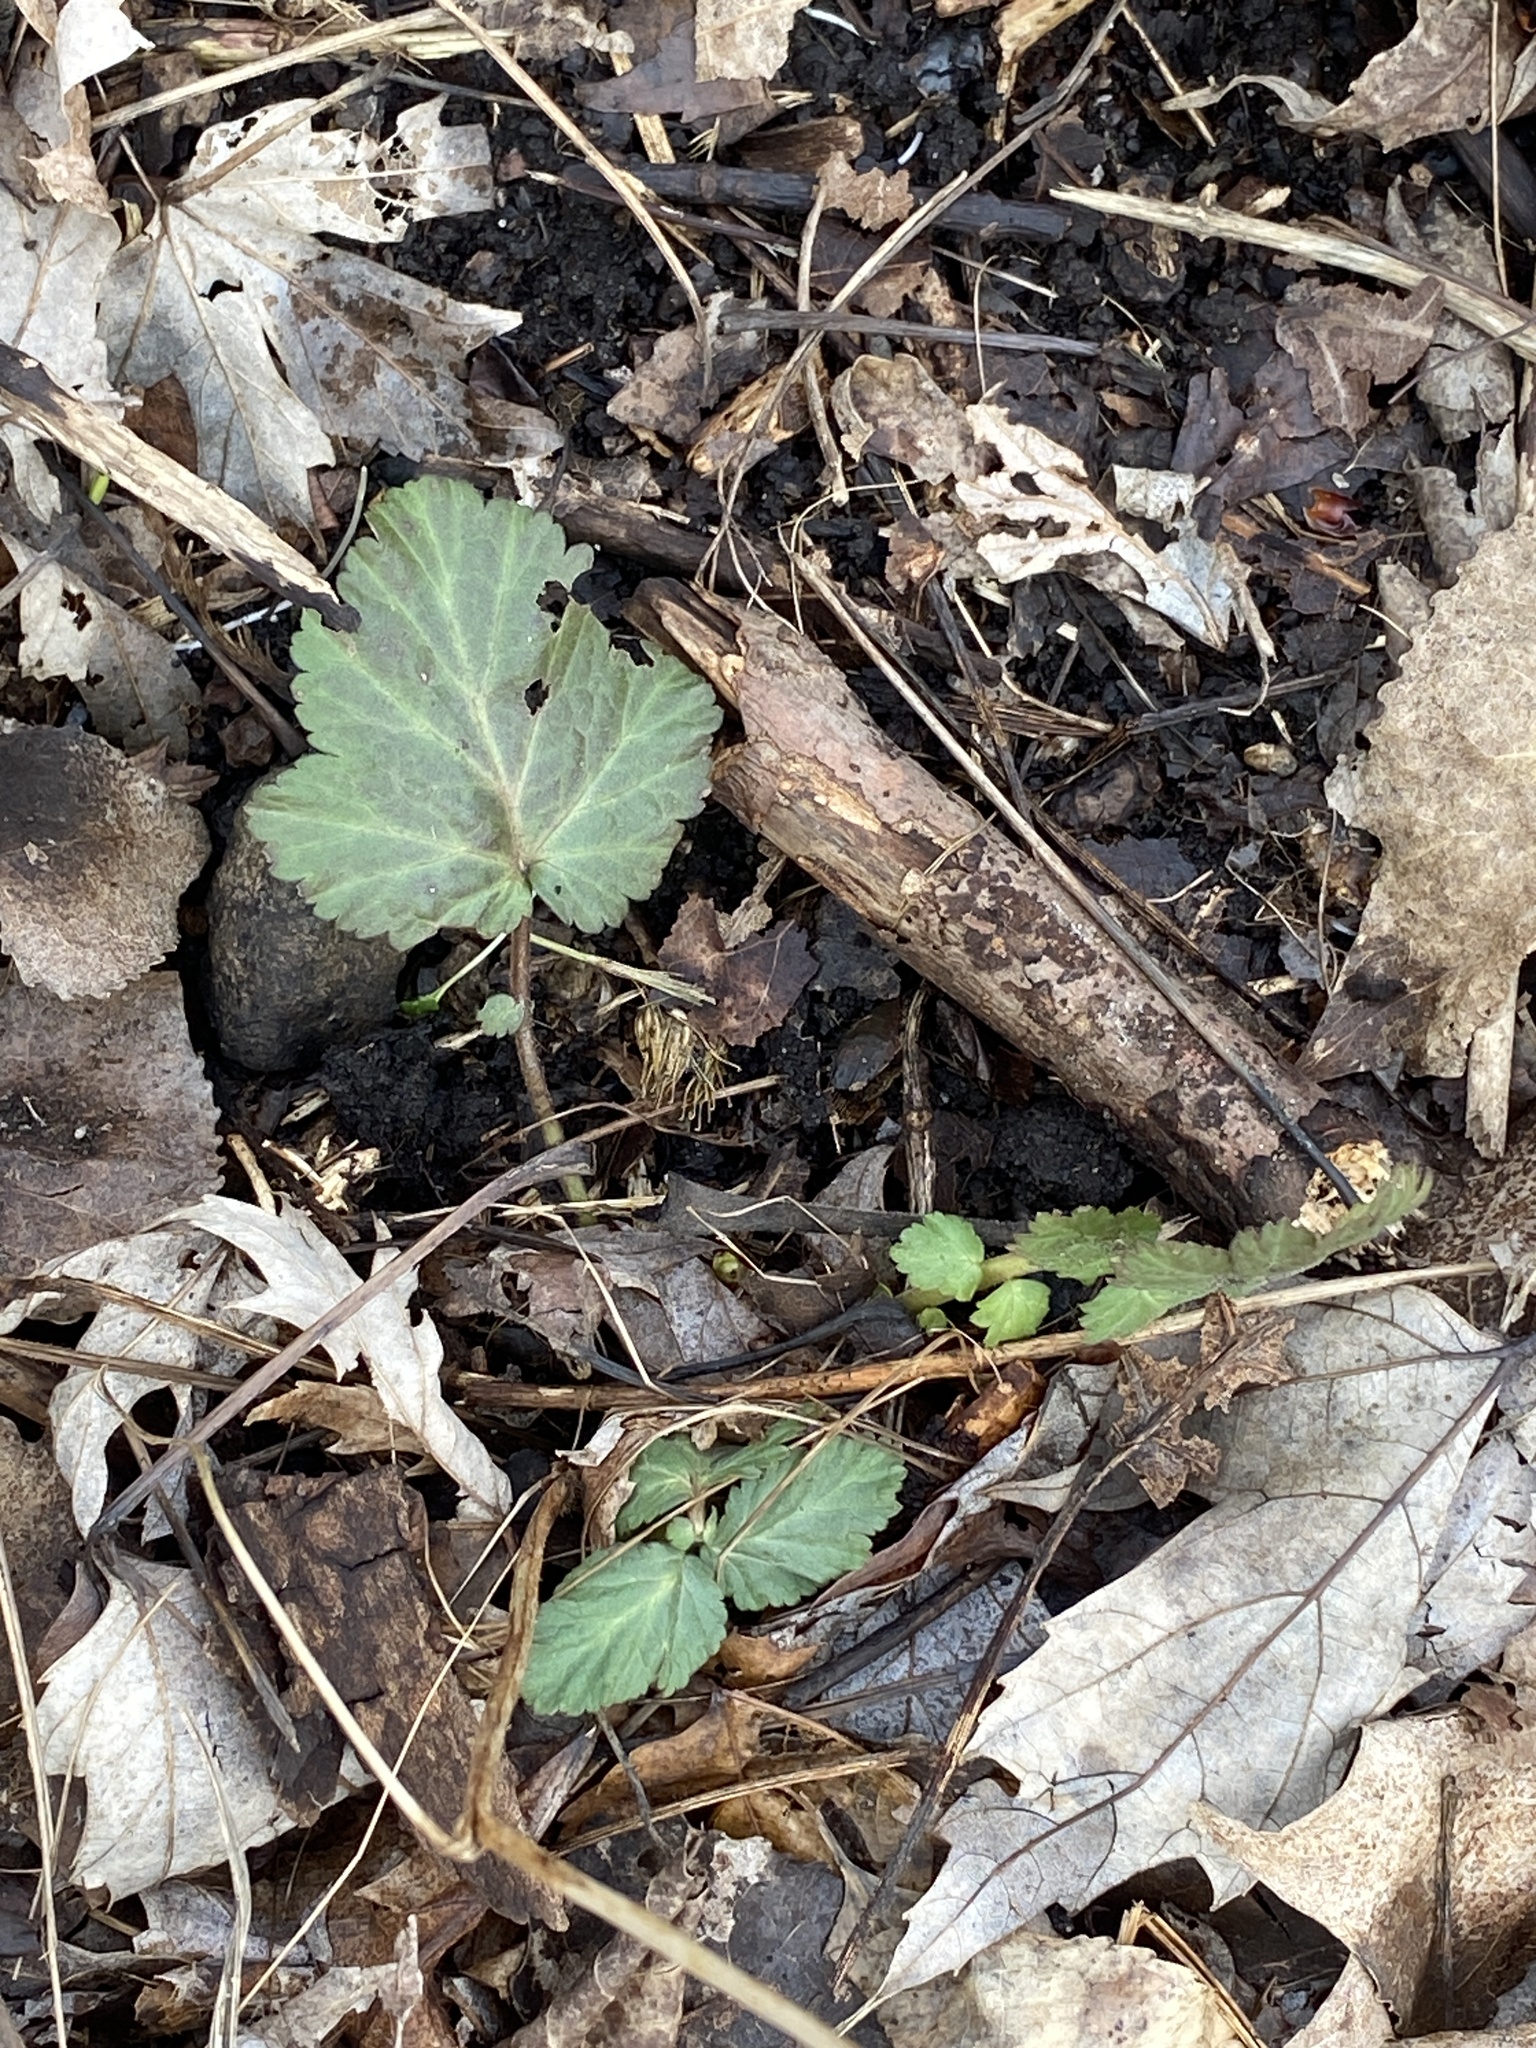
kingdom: Plantae
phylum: Tracheophyta
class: Magnoliopsida
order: Rosales
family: Rosaceae
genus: Geum
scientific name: Geum canadense
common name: White avens
